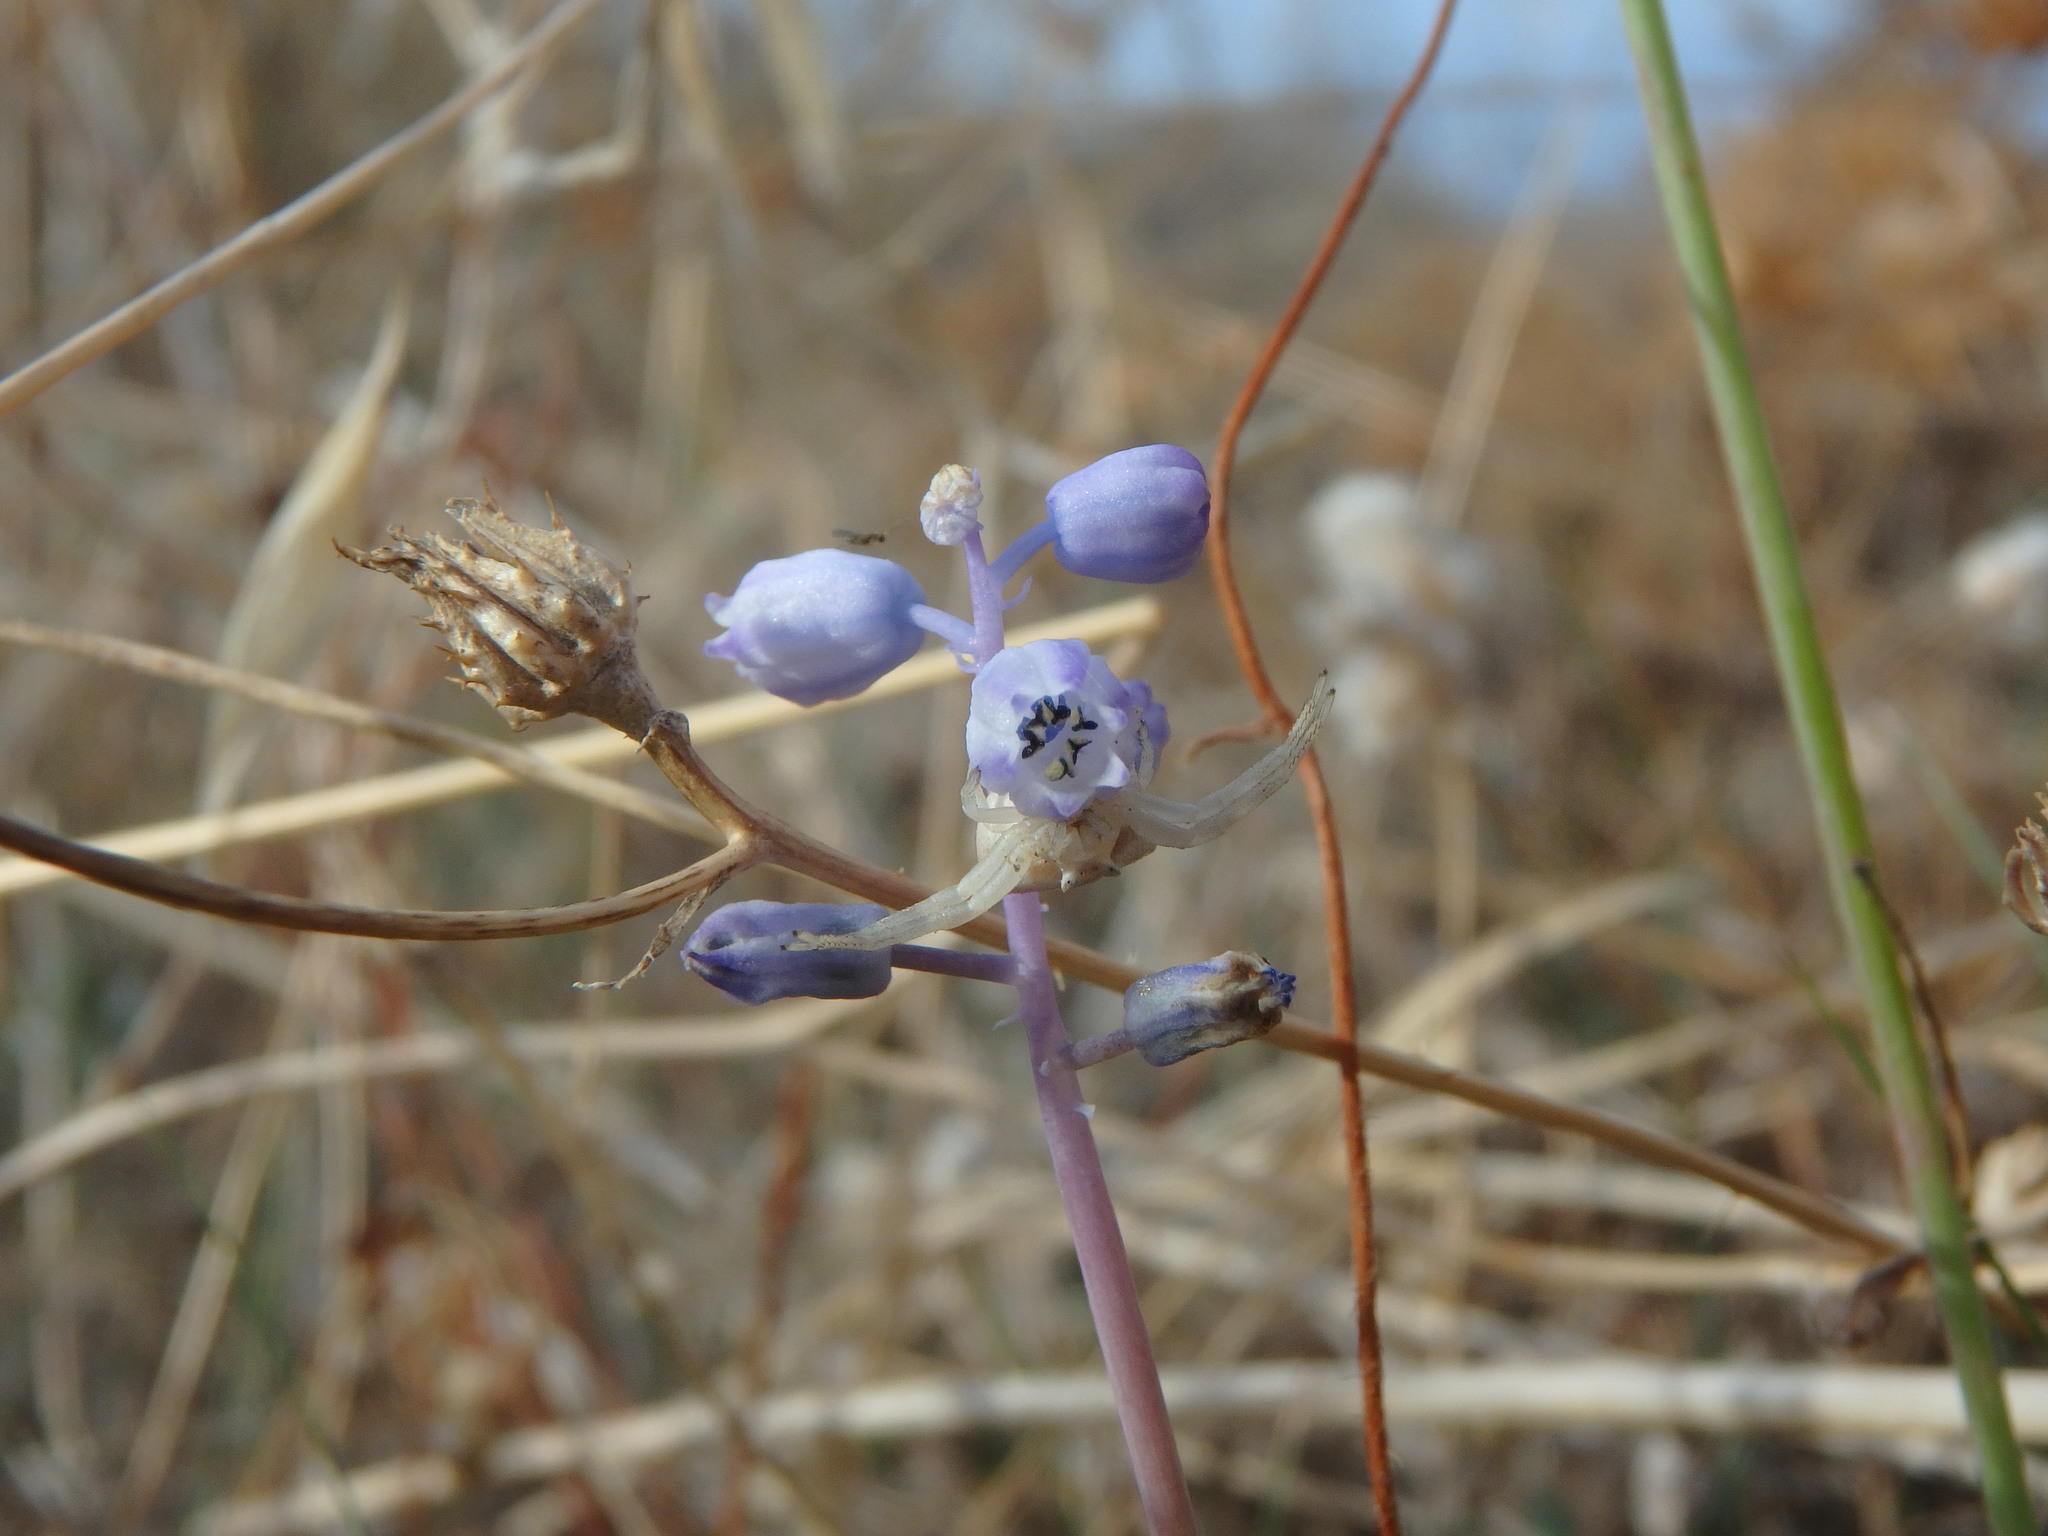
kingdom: Plantae
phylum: Tracheophyta
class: Liliopsida
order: Asparagales
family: Asparagaceae
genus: Muscari
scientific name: Muscari parviflorum
